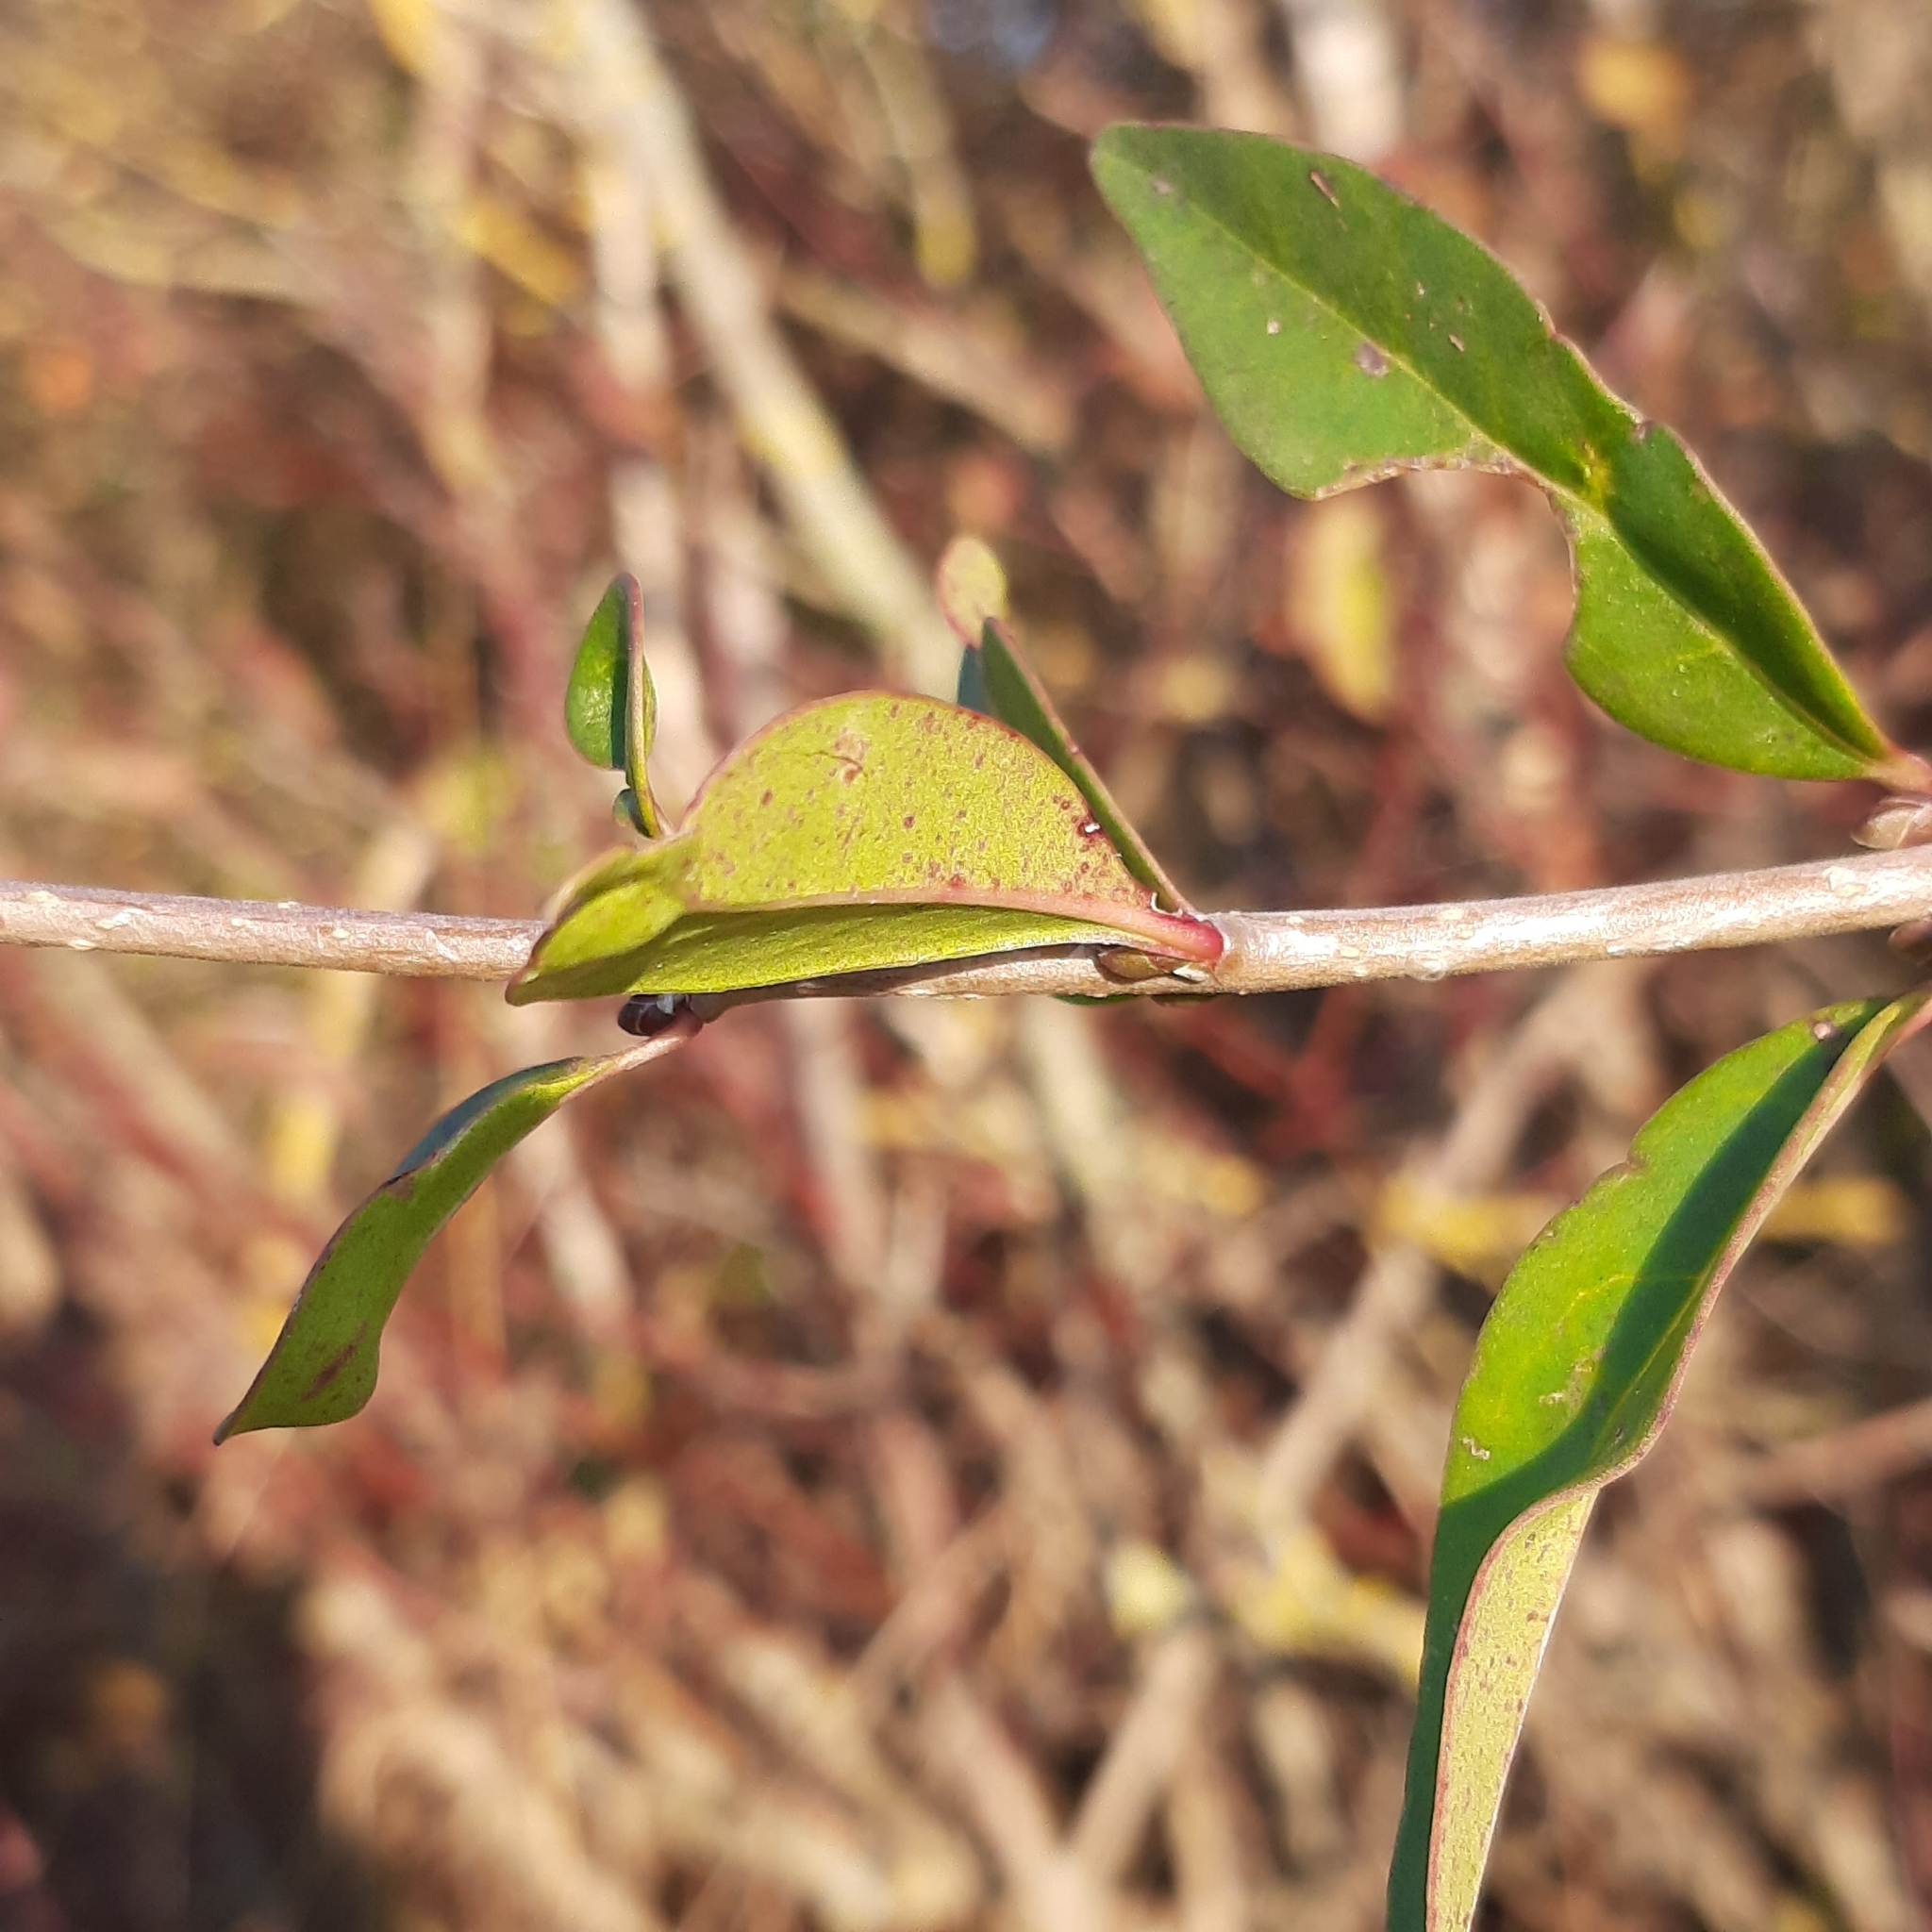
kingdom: Plantae
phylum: Tracheophyta
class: Magnoliopsida
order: Lamiales
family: Oleaceae
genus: Ligustrum
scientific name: Ligustrum vulgare
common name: Wild privet
